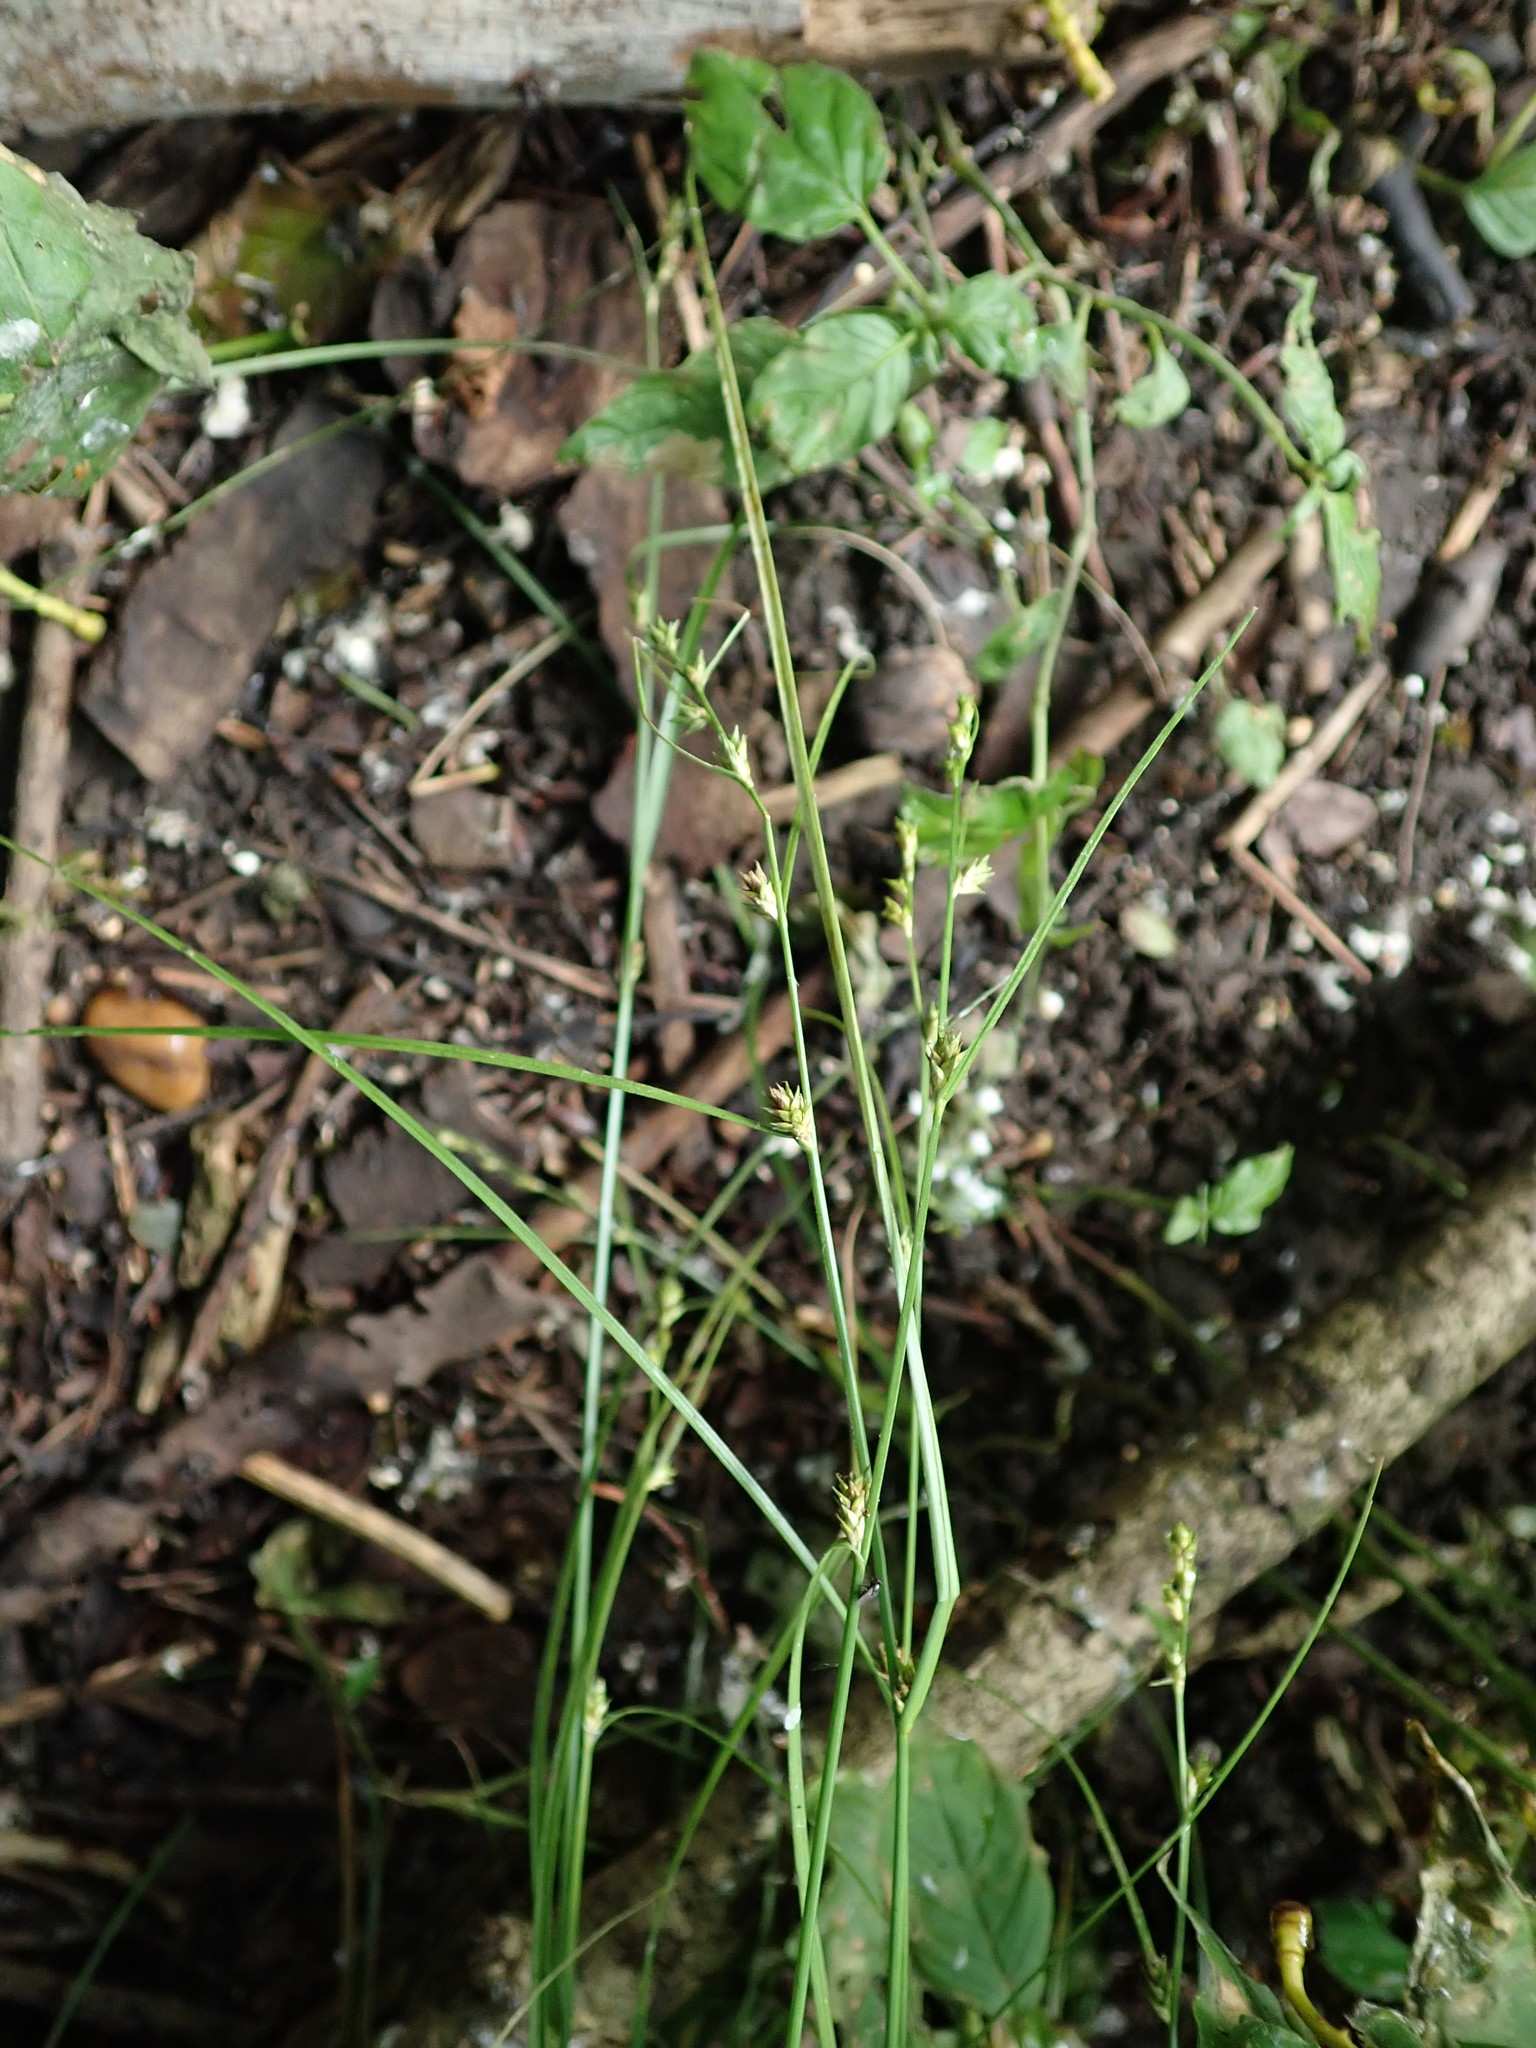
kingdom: Plantae
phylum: Tracheophyta
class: Liliopsida
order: Poales
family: Cyperaceae
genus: Carex
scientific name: Carex remota
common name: Remote sedge
